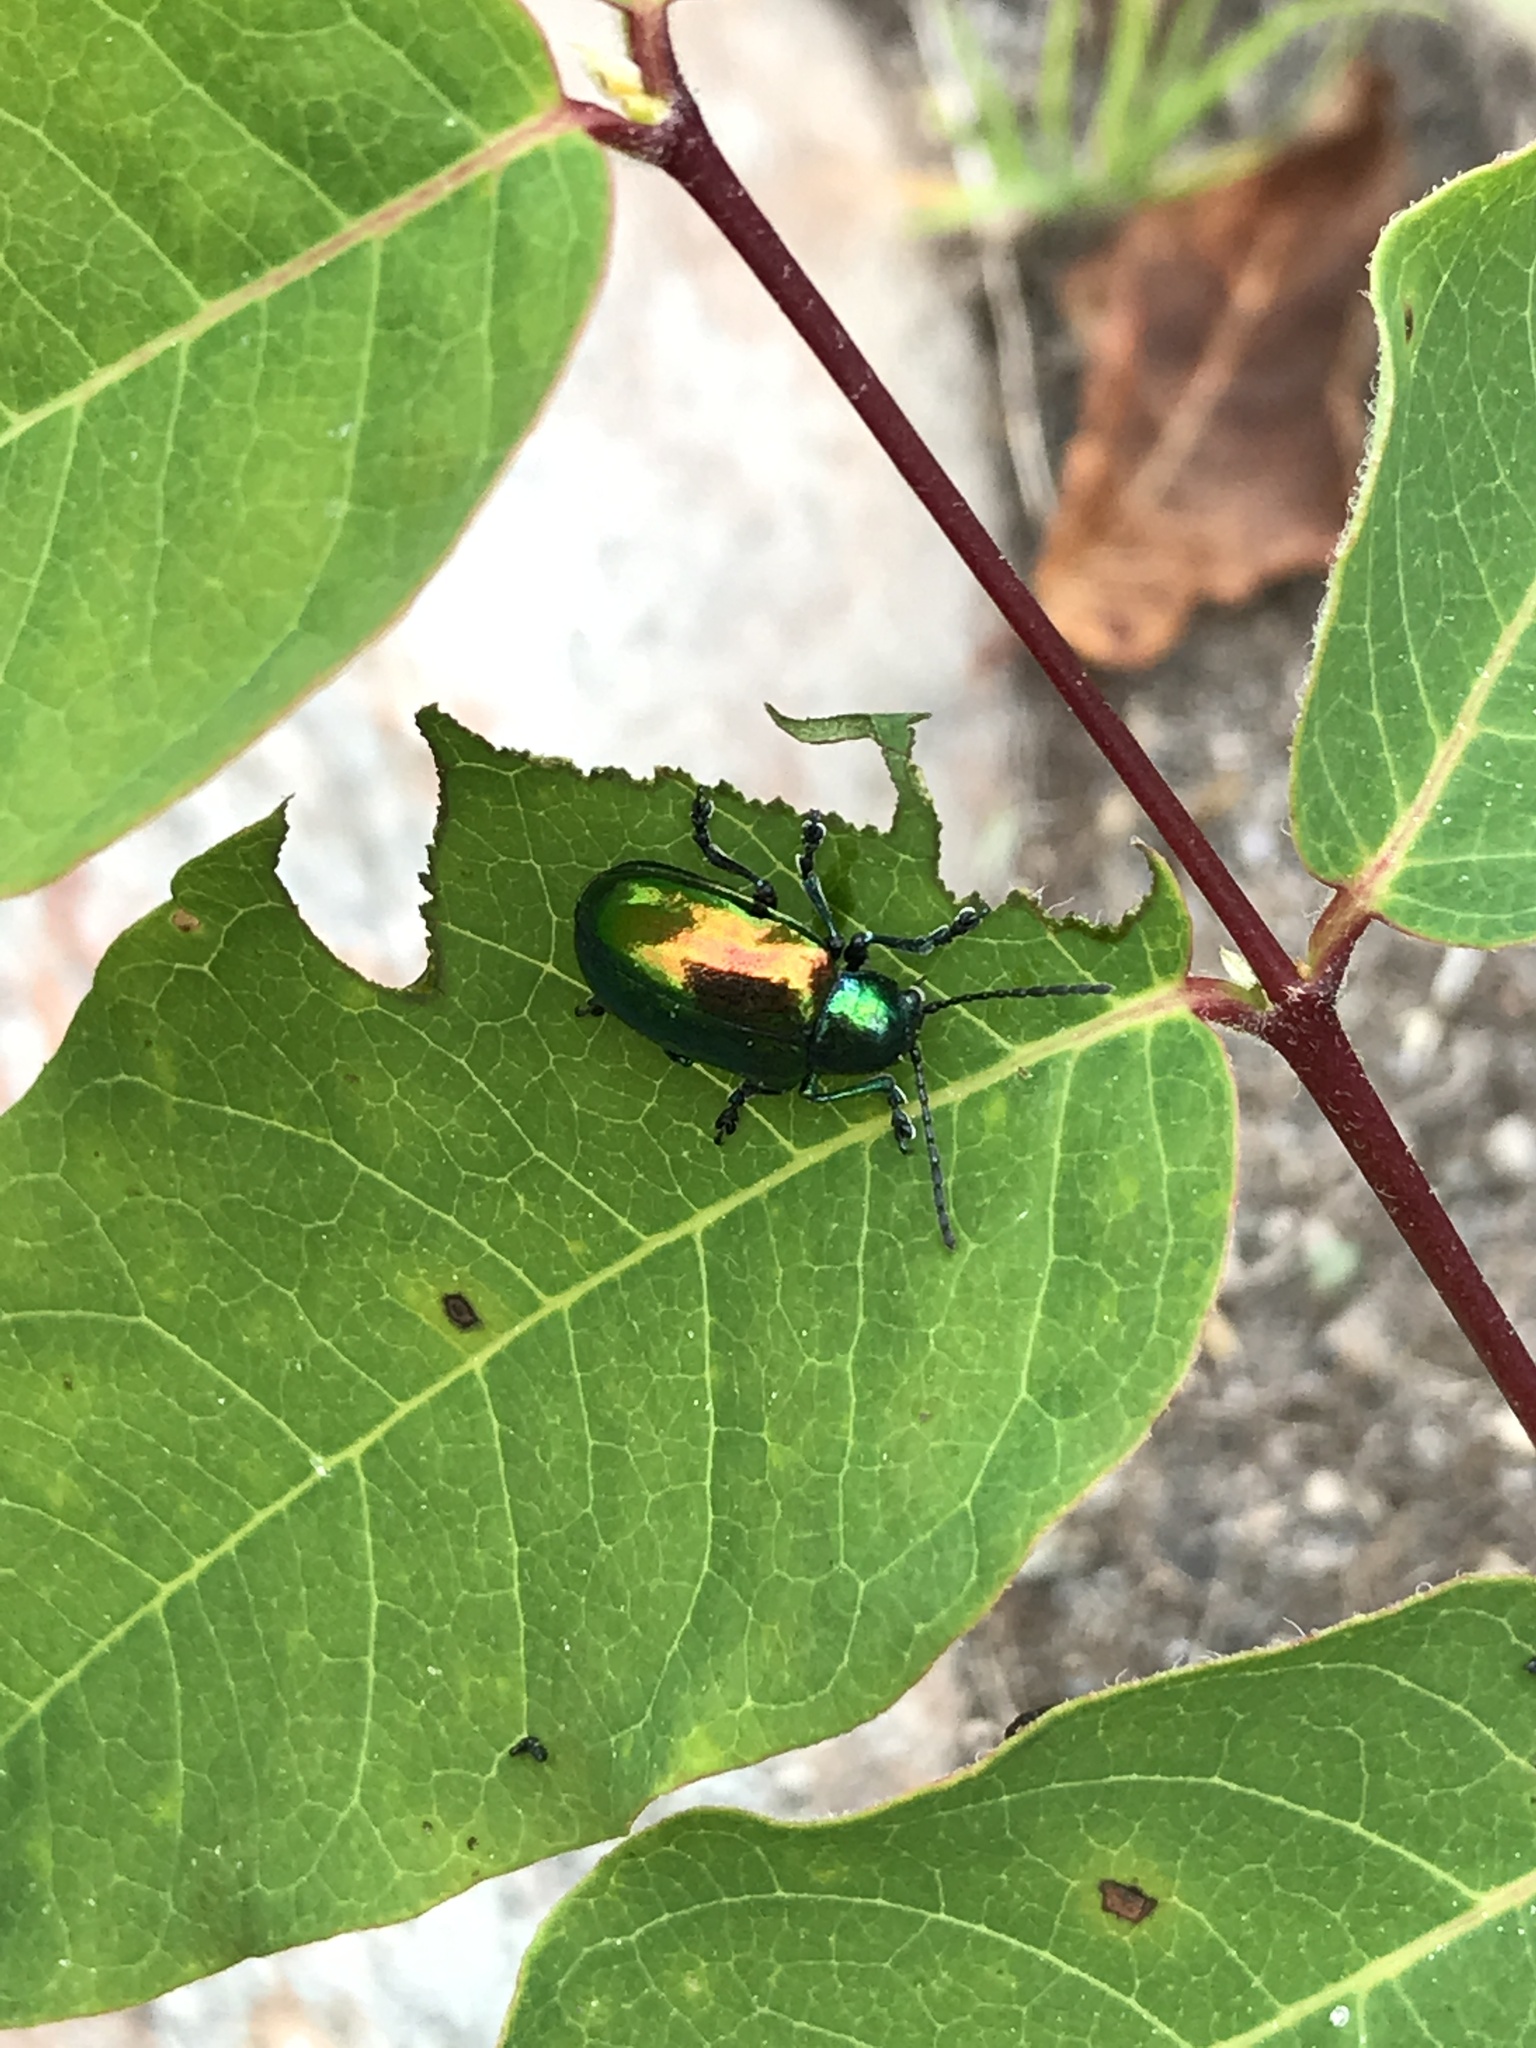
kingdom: Animalia
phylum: Arthropoda
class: Insecta
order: Coleoptera
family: Chrysomelidae
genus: Chrysochus
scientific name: Chrysochus auratus
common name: Dogbane leaf beetle
